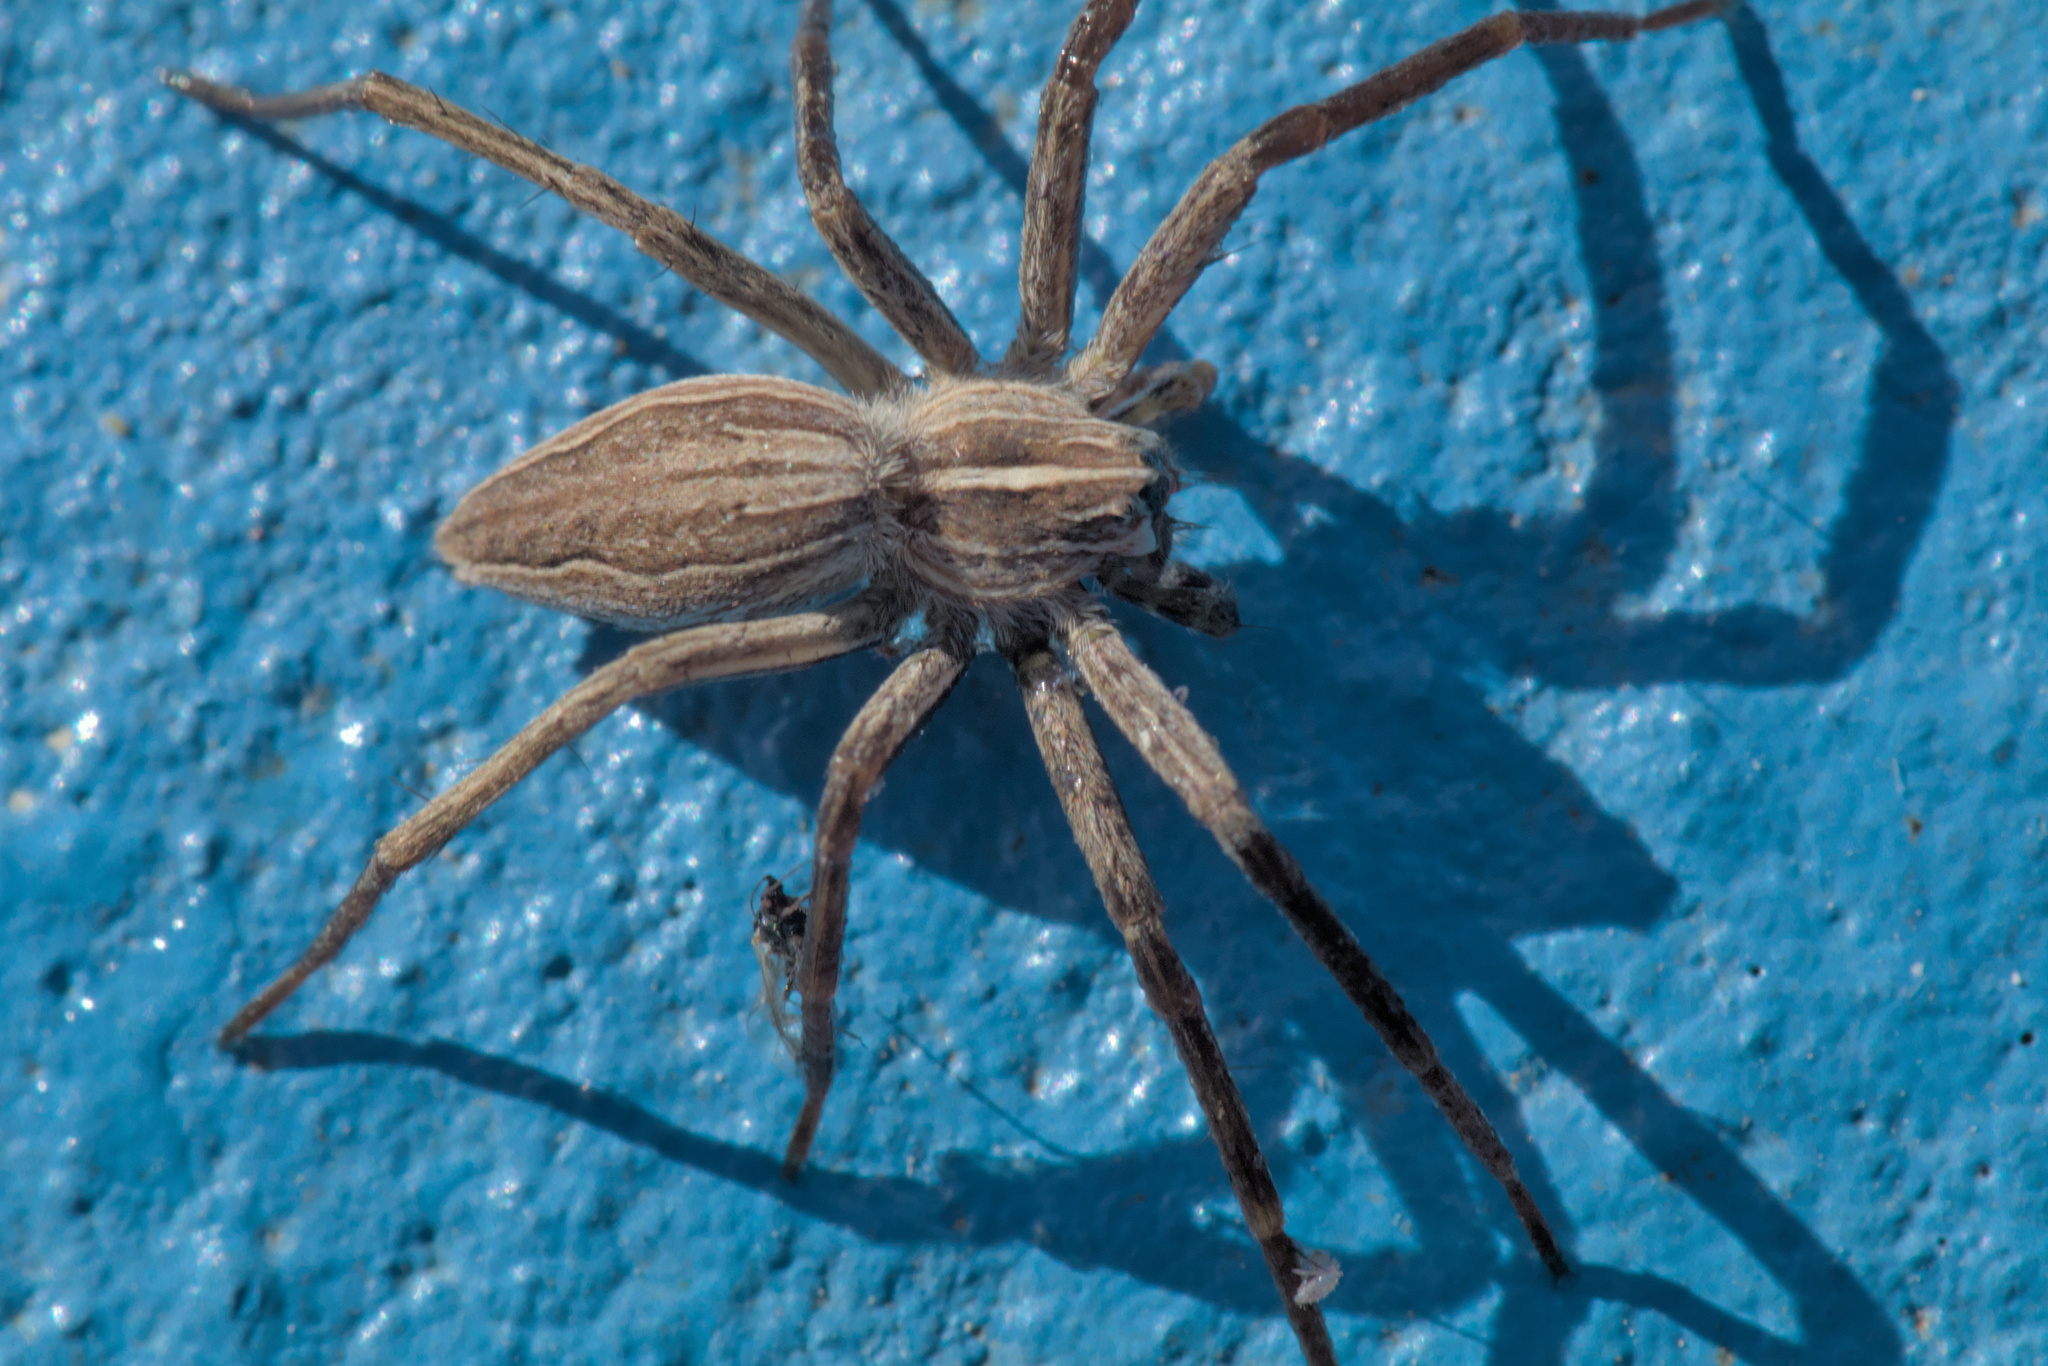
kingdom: Animalia
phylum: Arthropoda
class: Arachnida
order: Araneae
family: Pisauridae
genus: Pisaura
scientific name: Pisaura mirabilis
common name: Tent spider
